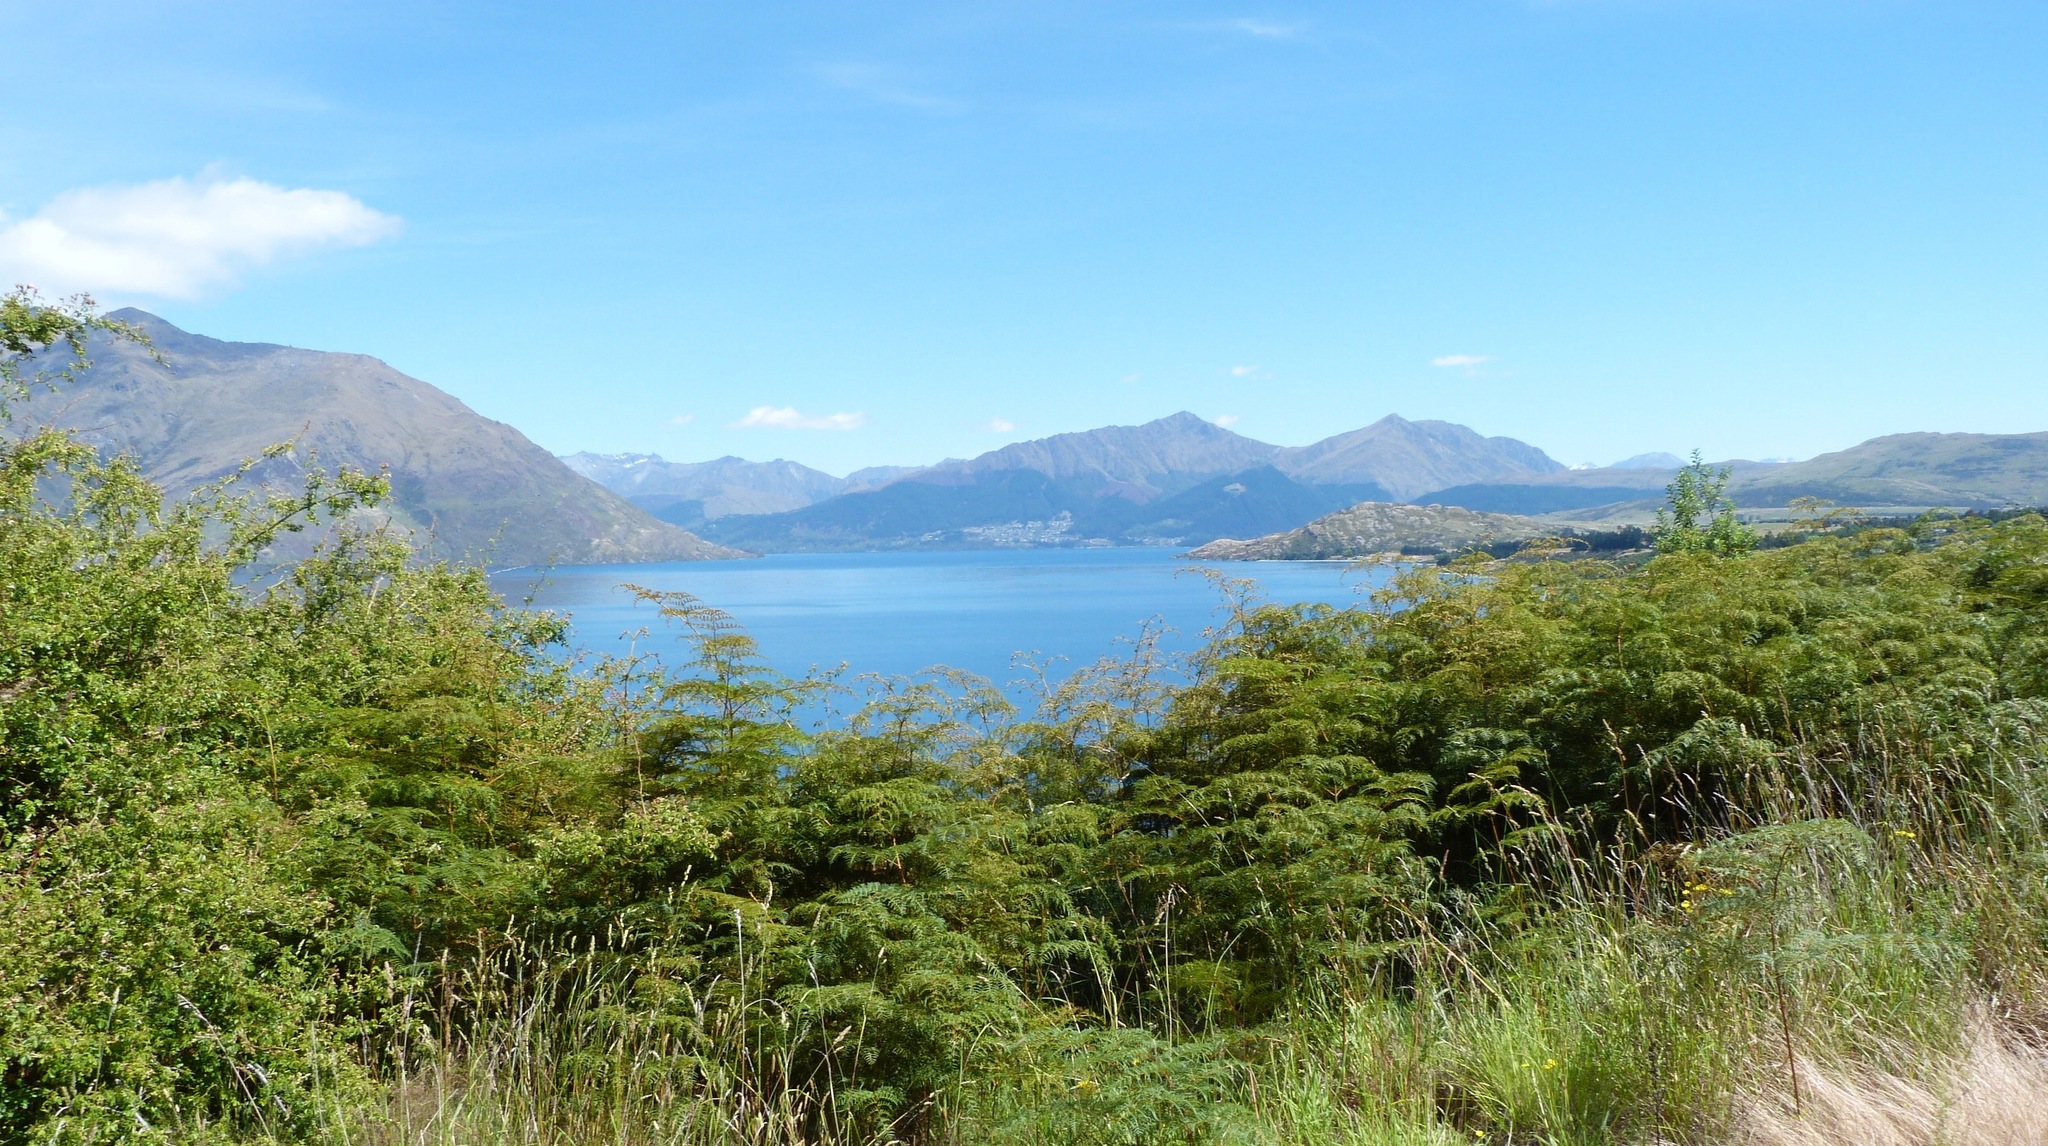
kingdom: Plantae
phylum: Tracheophyta
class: Polypodiopsida
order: Polypodiales
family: Dennstaedtiaceae
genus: Pteridium
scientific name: Pteridium esculentum
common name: Bracken fern
